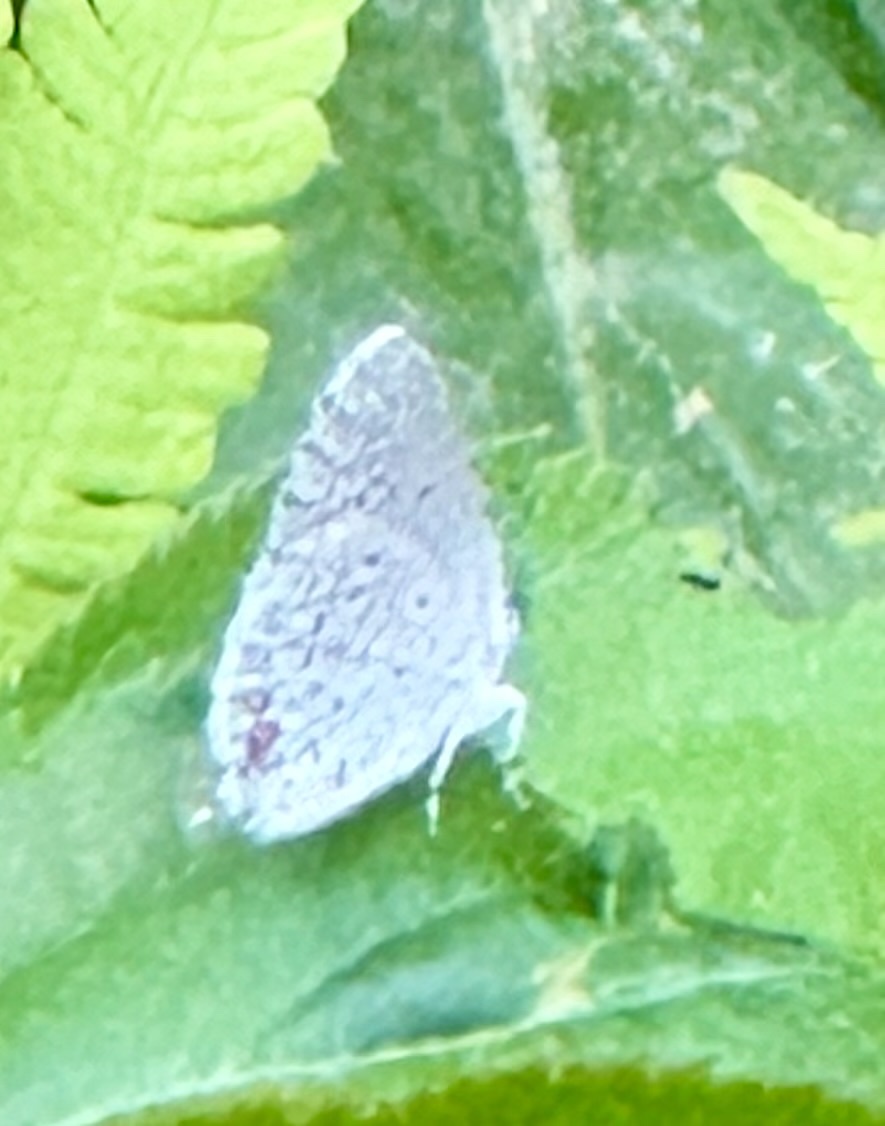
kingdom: Animalia
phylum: Arthropoda
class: Insecta
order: Lepidoptera
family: Lycaenidae
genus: Elkalyce
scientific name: Elkalyce comyntas
